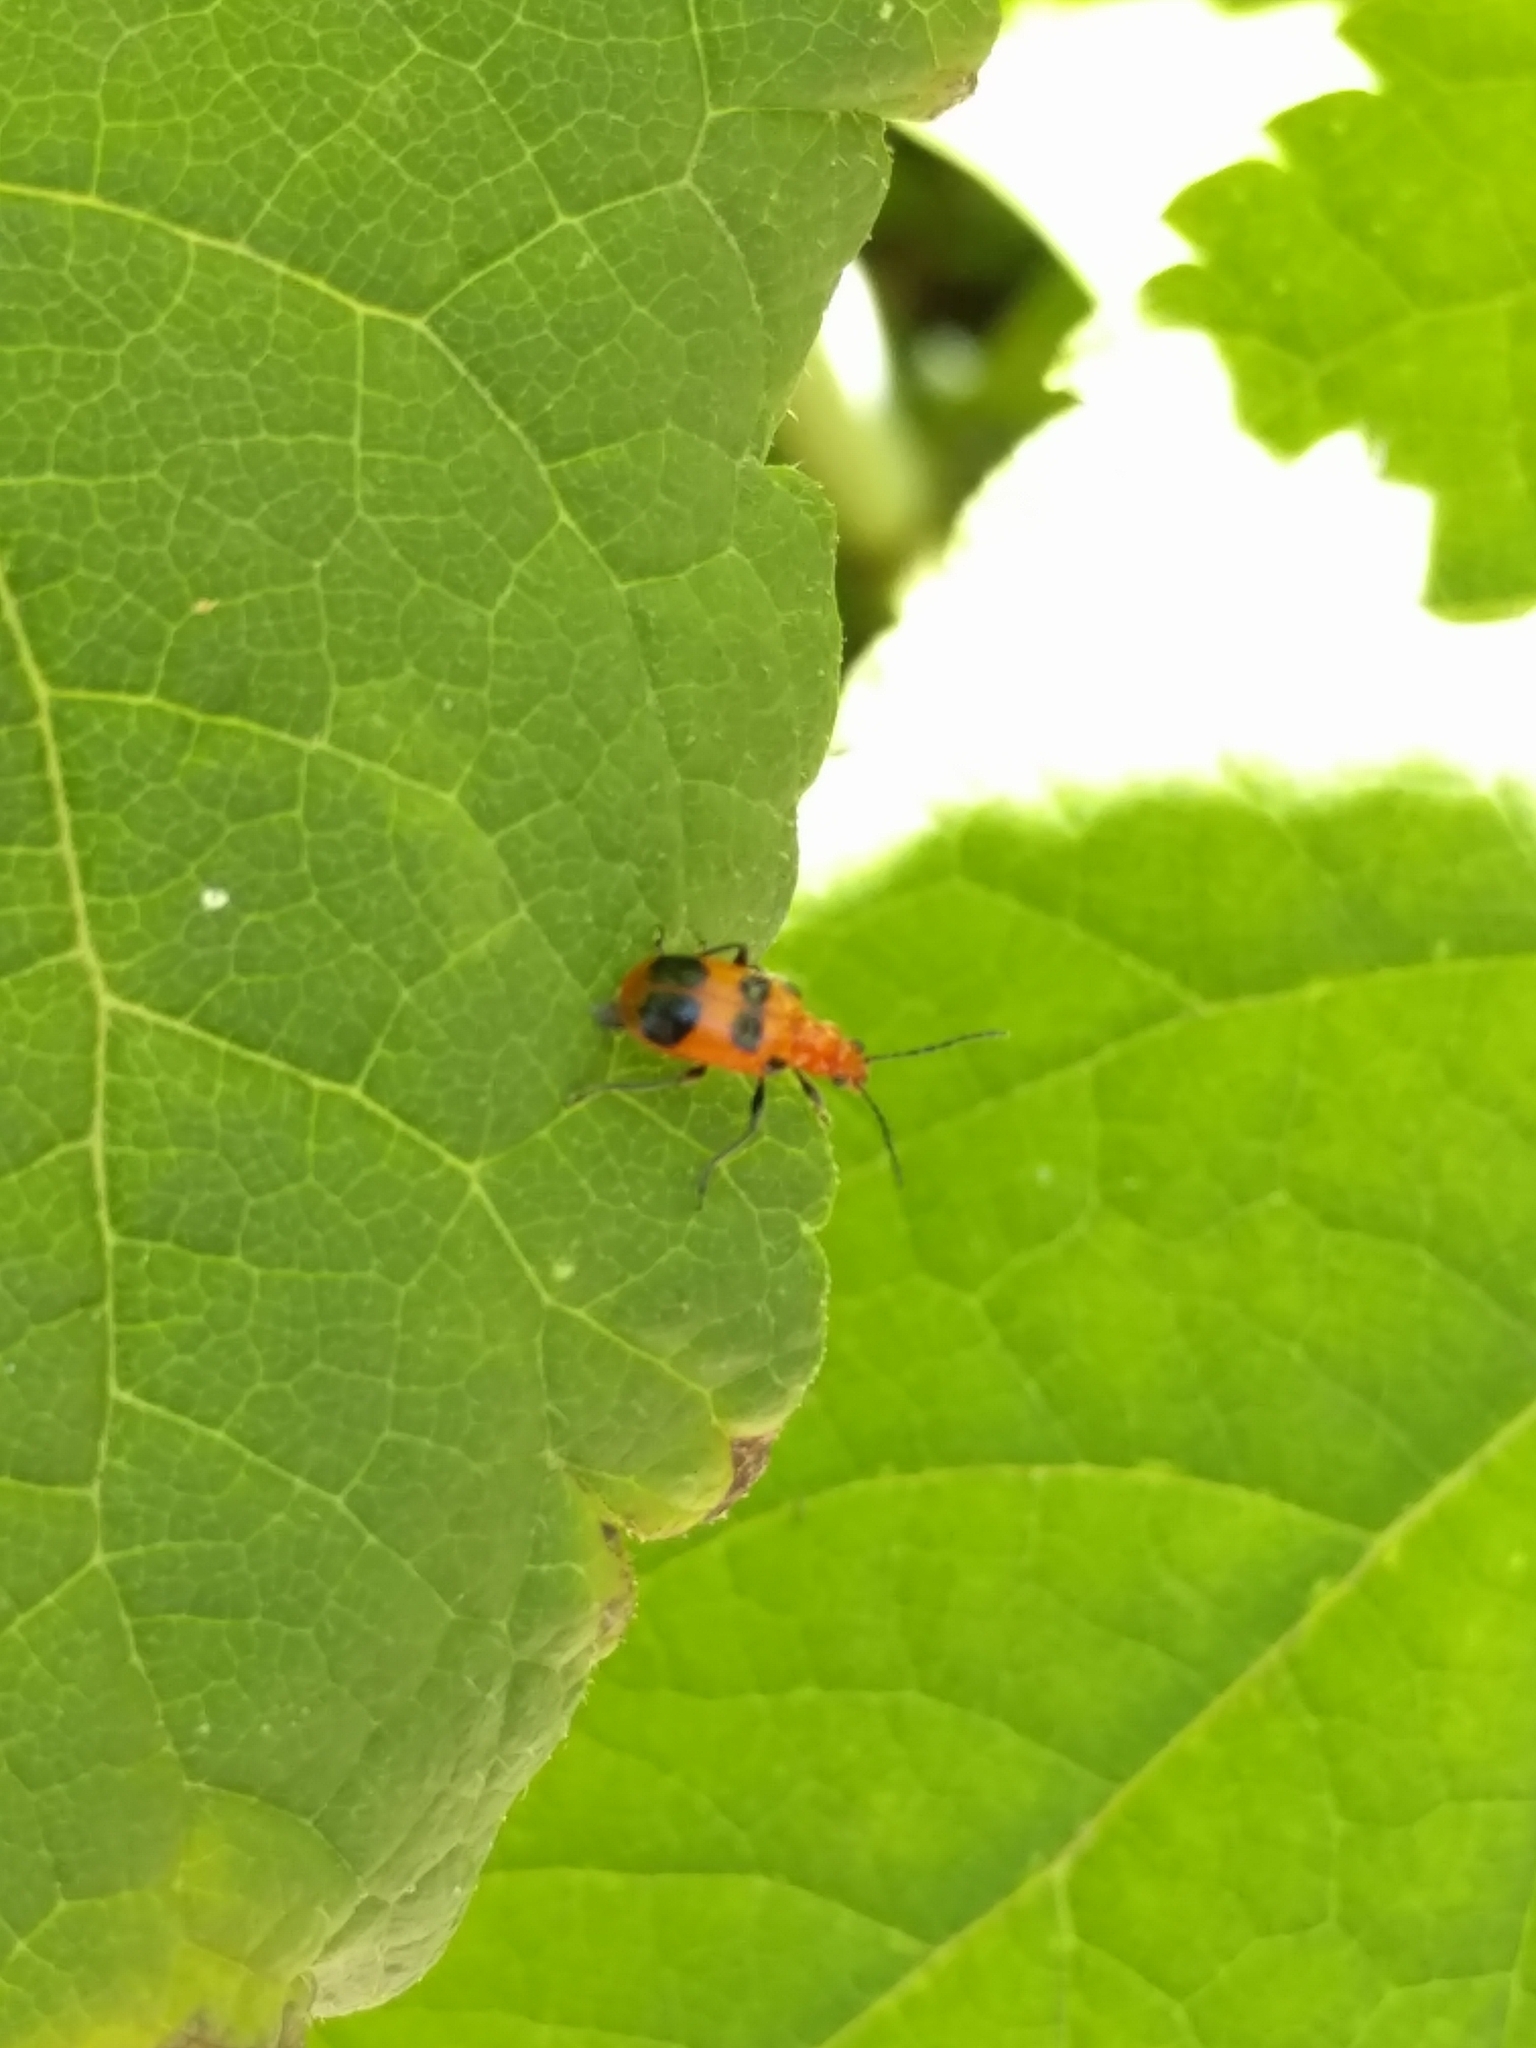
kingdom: Animalia
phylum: Arthropoda
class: Insecta
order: Coleoptera
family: Chrysomelidae
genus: Neolema
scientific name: Neolema sexpunctata
